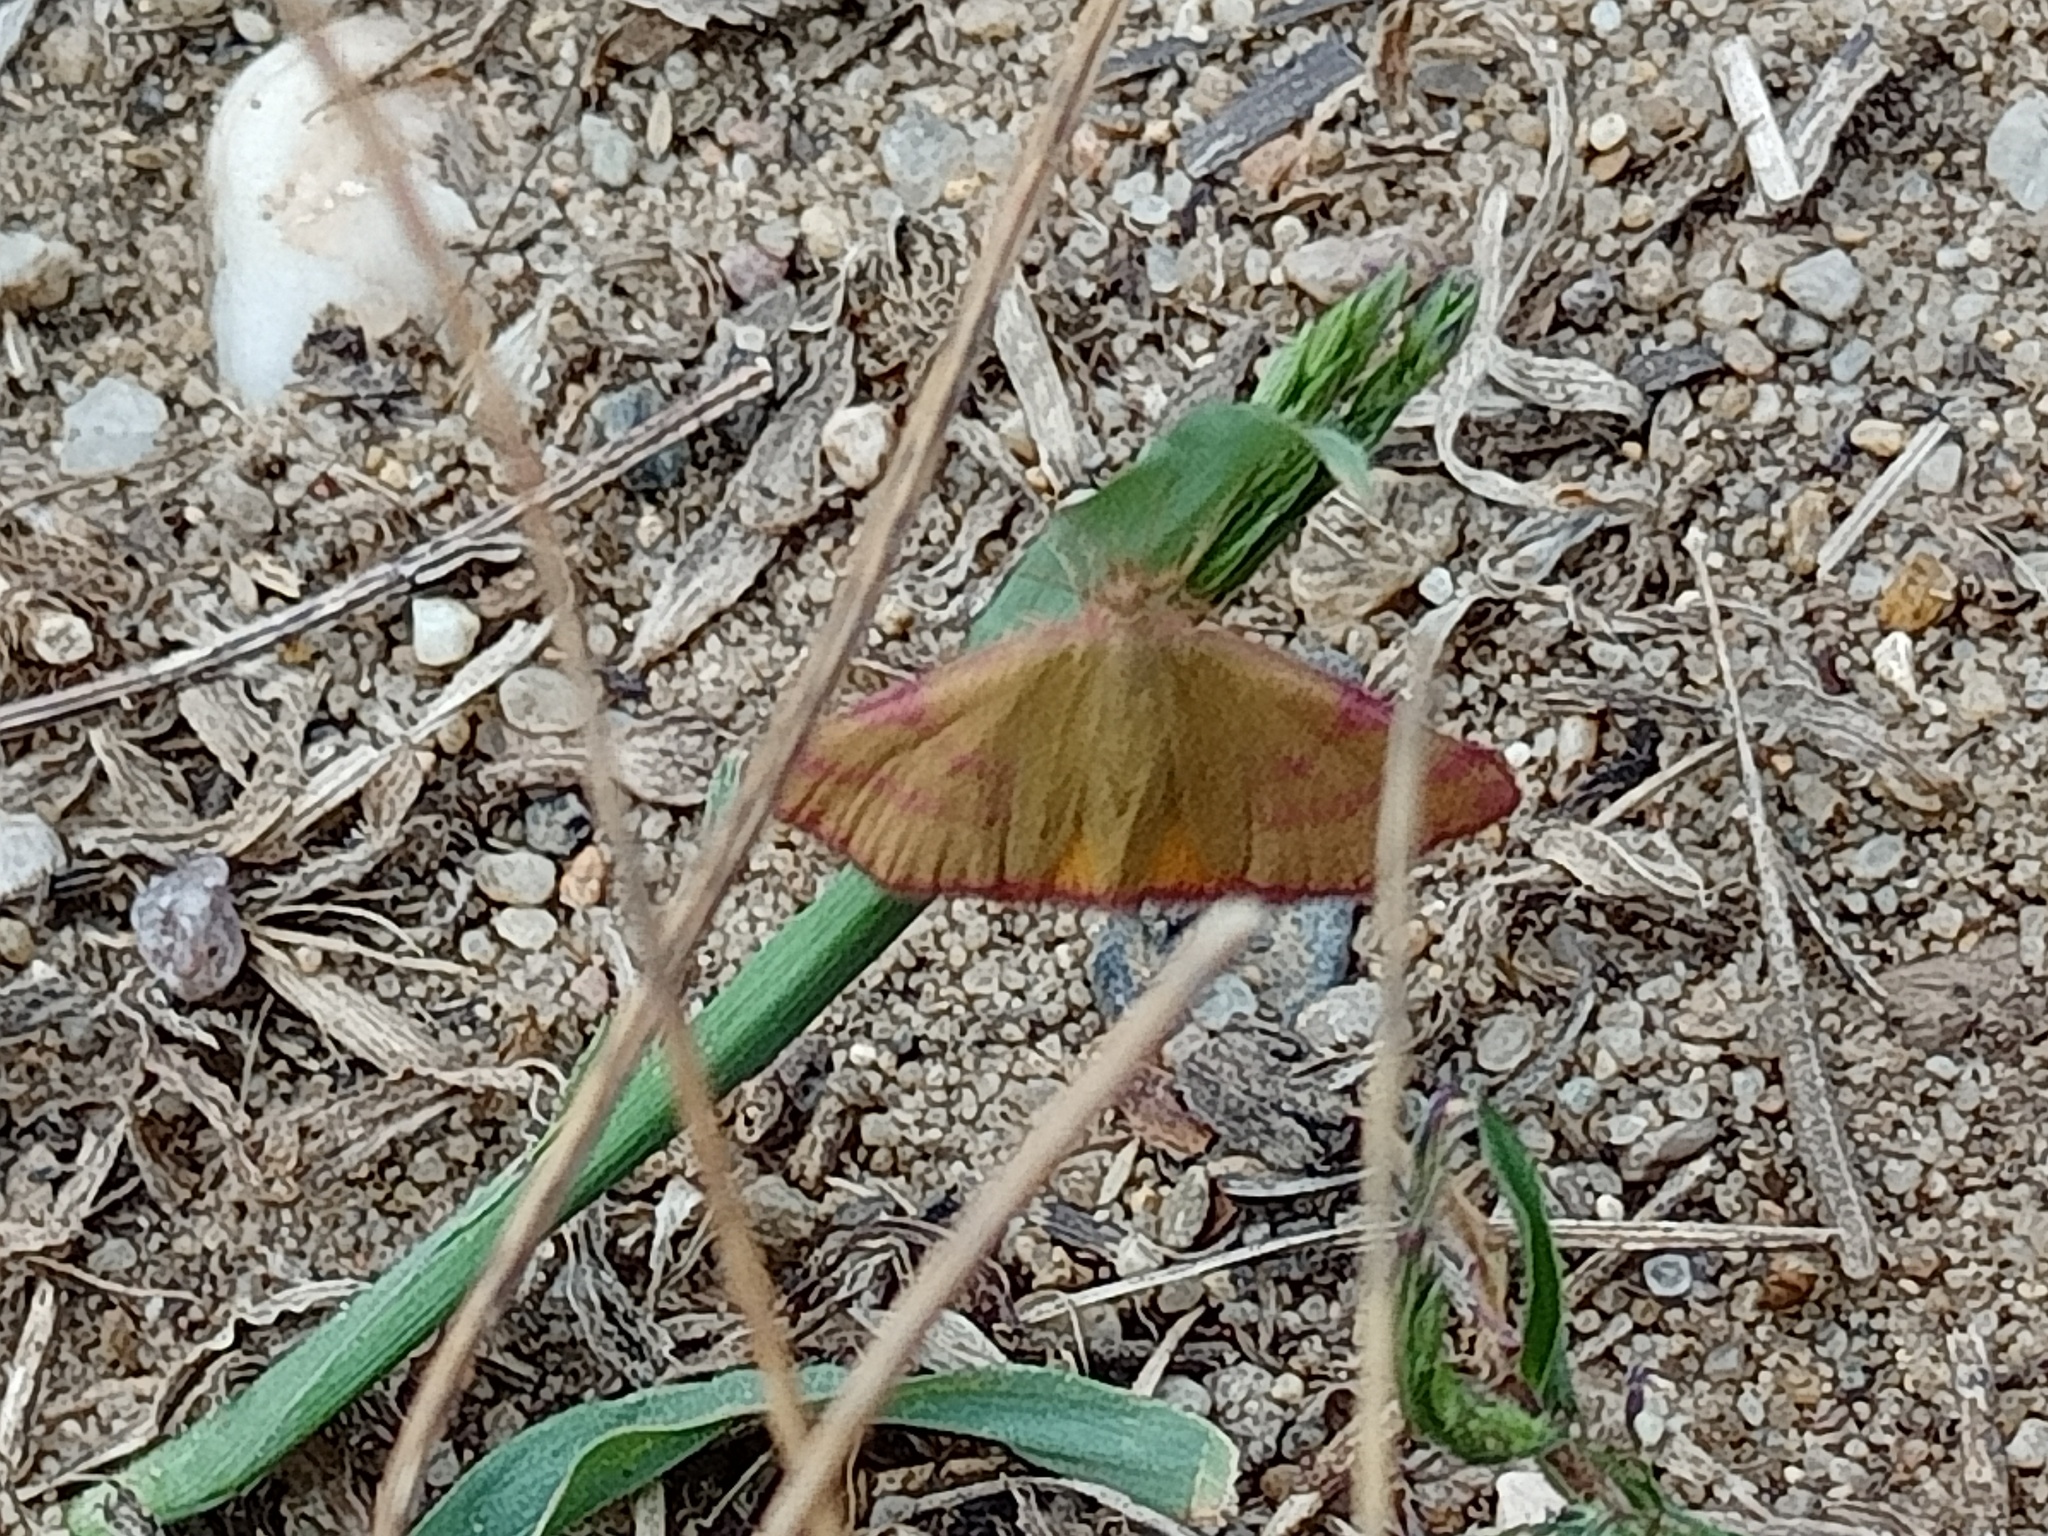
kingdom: Animalia
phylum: Arthropoda
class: Insecta
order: Lepidoptera
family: Geometridae
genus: Lythria
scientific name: Lythria purpuraria
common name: Purple-barred yellow
